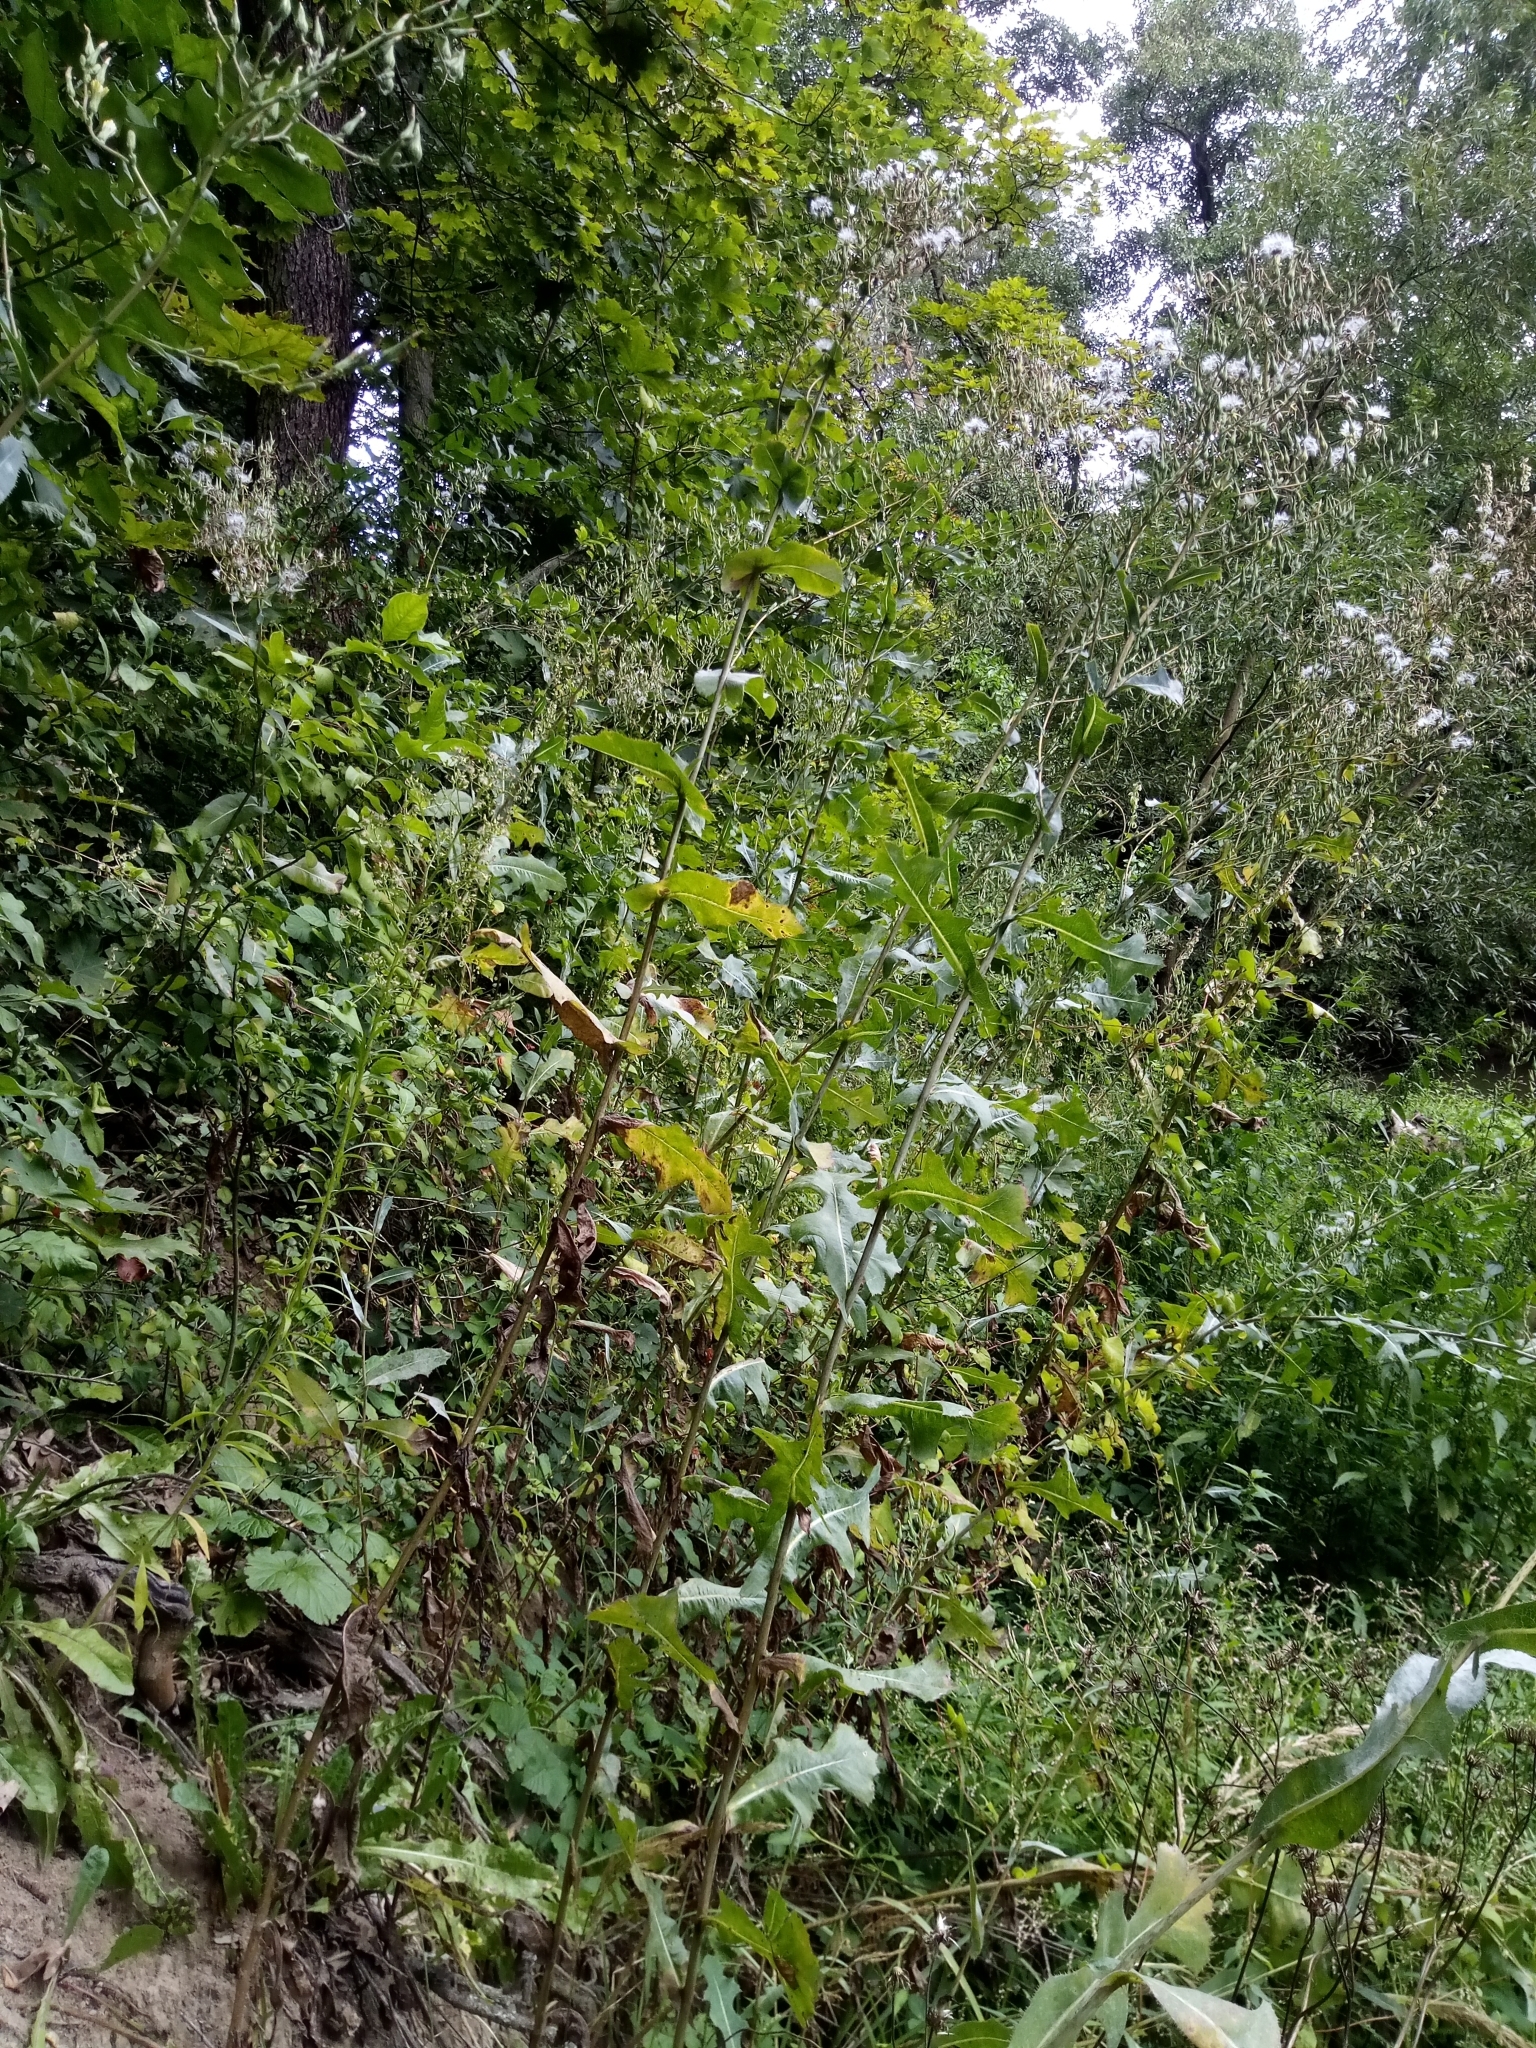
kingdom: Plantae
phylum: Tracheophyta
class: Magnoliopsida
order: Asterales
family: Asteraceae
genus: Lactuca
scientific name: Lactuca serriola
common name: Prickly lettuce
